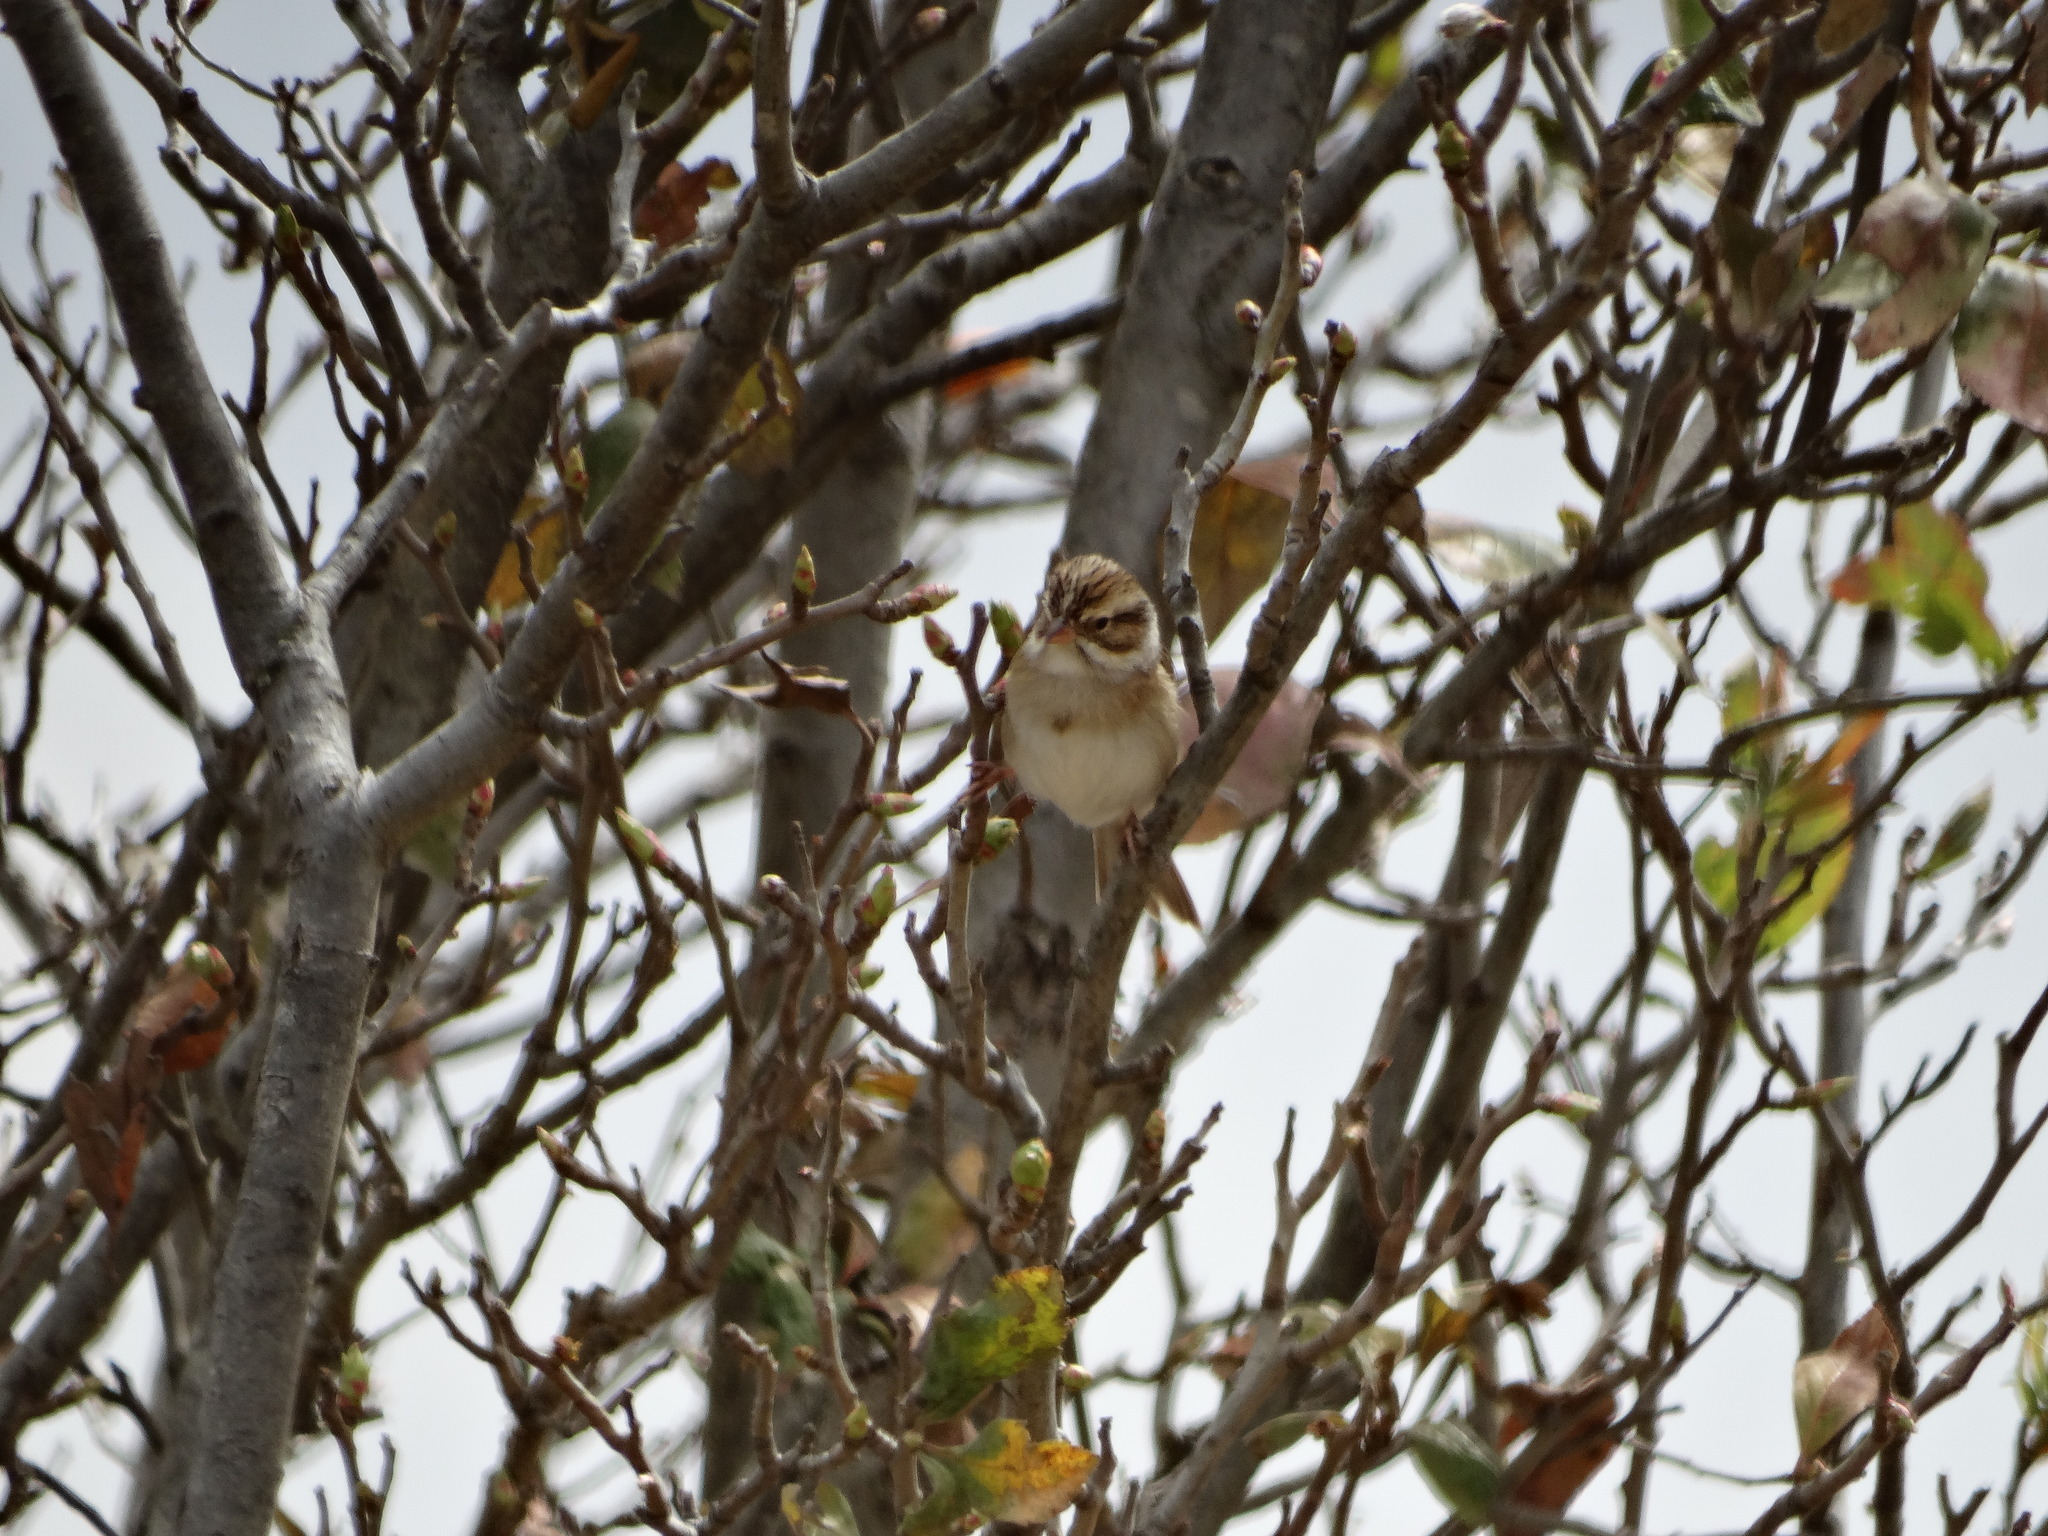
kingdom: Animalia
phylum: Chordata
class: Aves
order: Passeriformes
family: Passerellidae
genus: Spizella
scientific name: Spizella pallida
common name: Clay-colored sparrow
